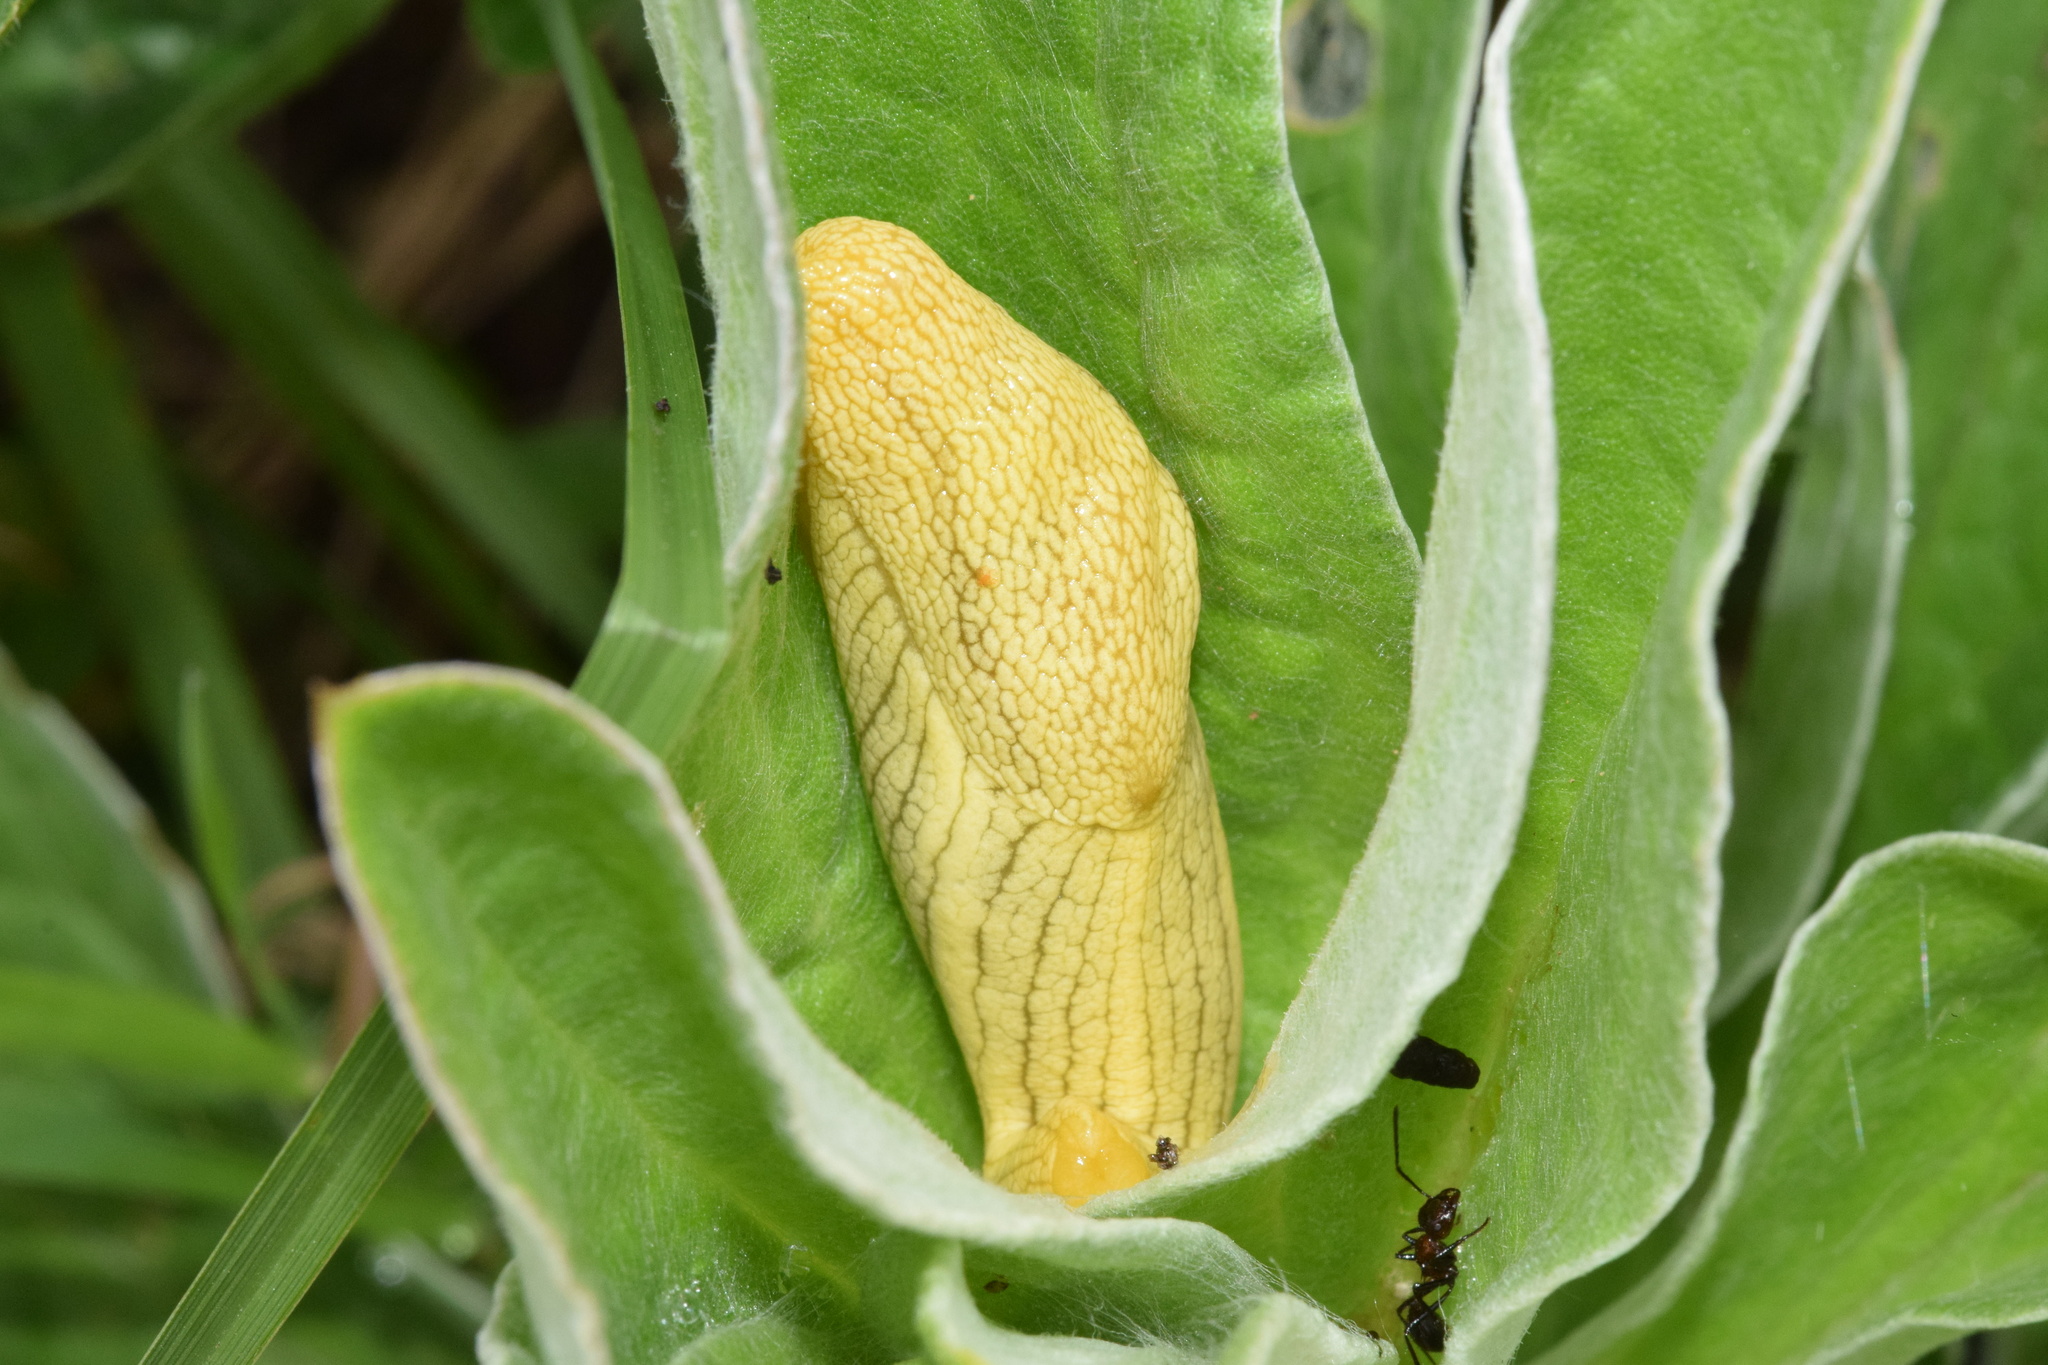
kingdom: Animalia
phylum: Mollusca
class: Gastropoda
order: Stylommatophora
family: Urocyclidae
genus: Elisolimax
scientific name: Elisolimax flavescens
